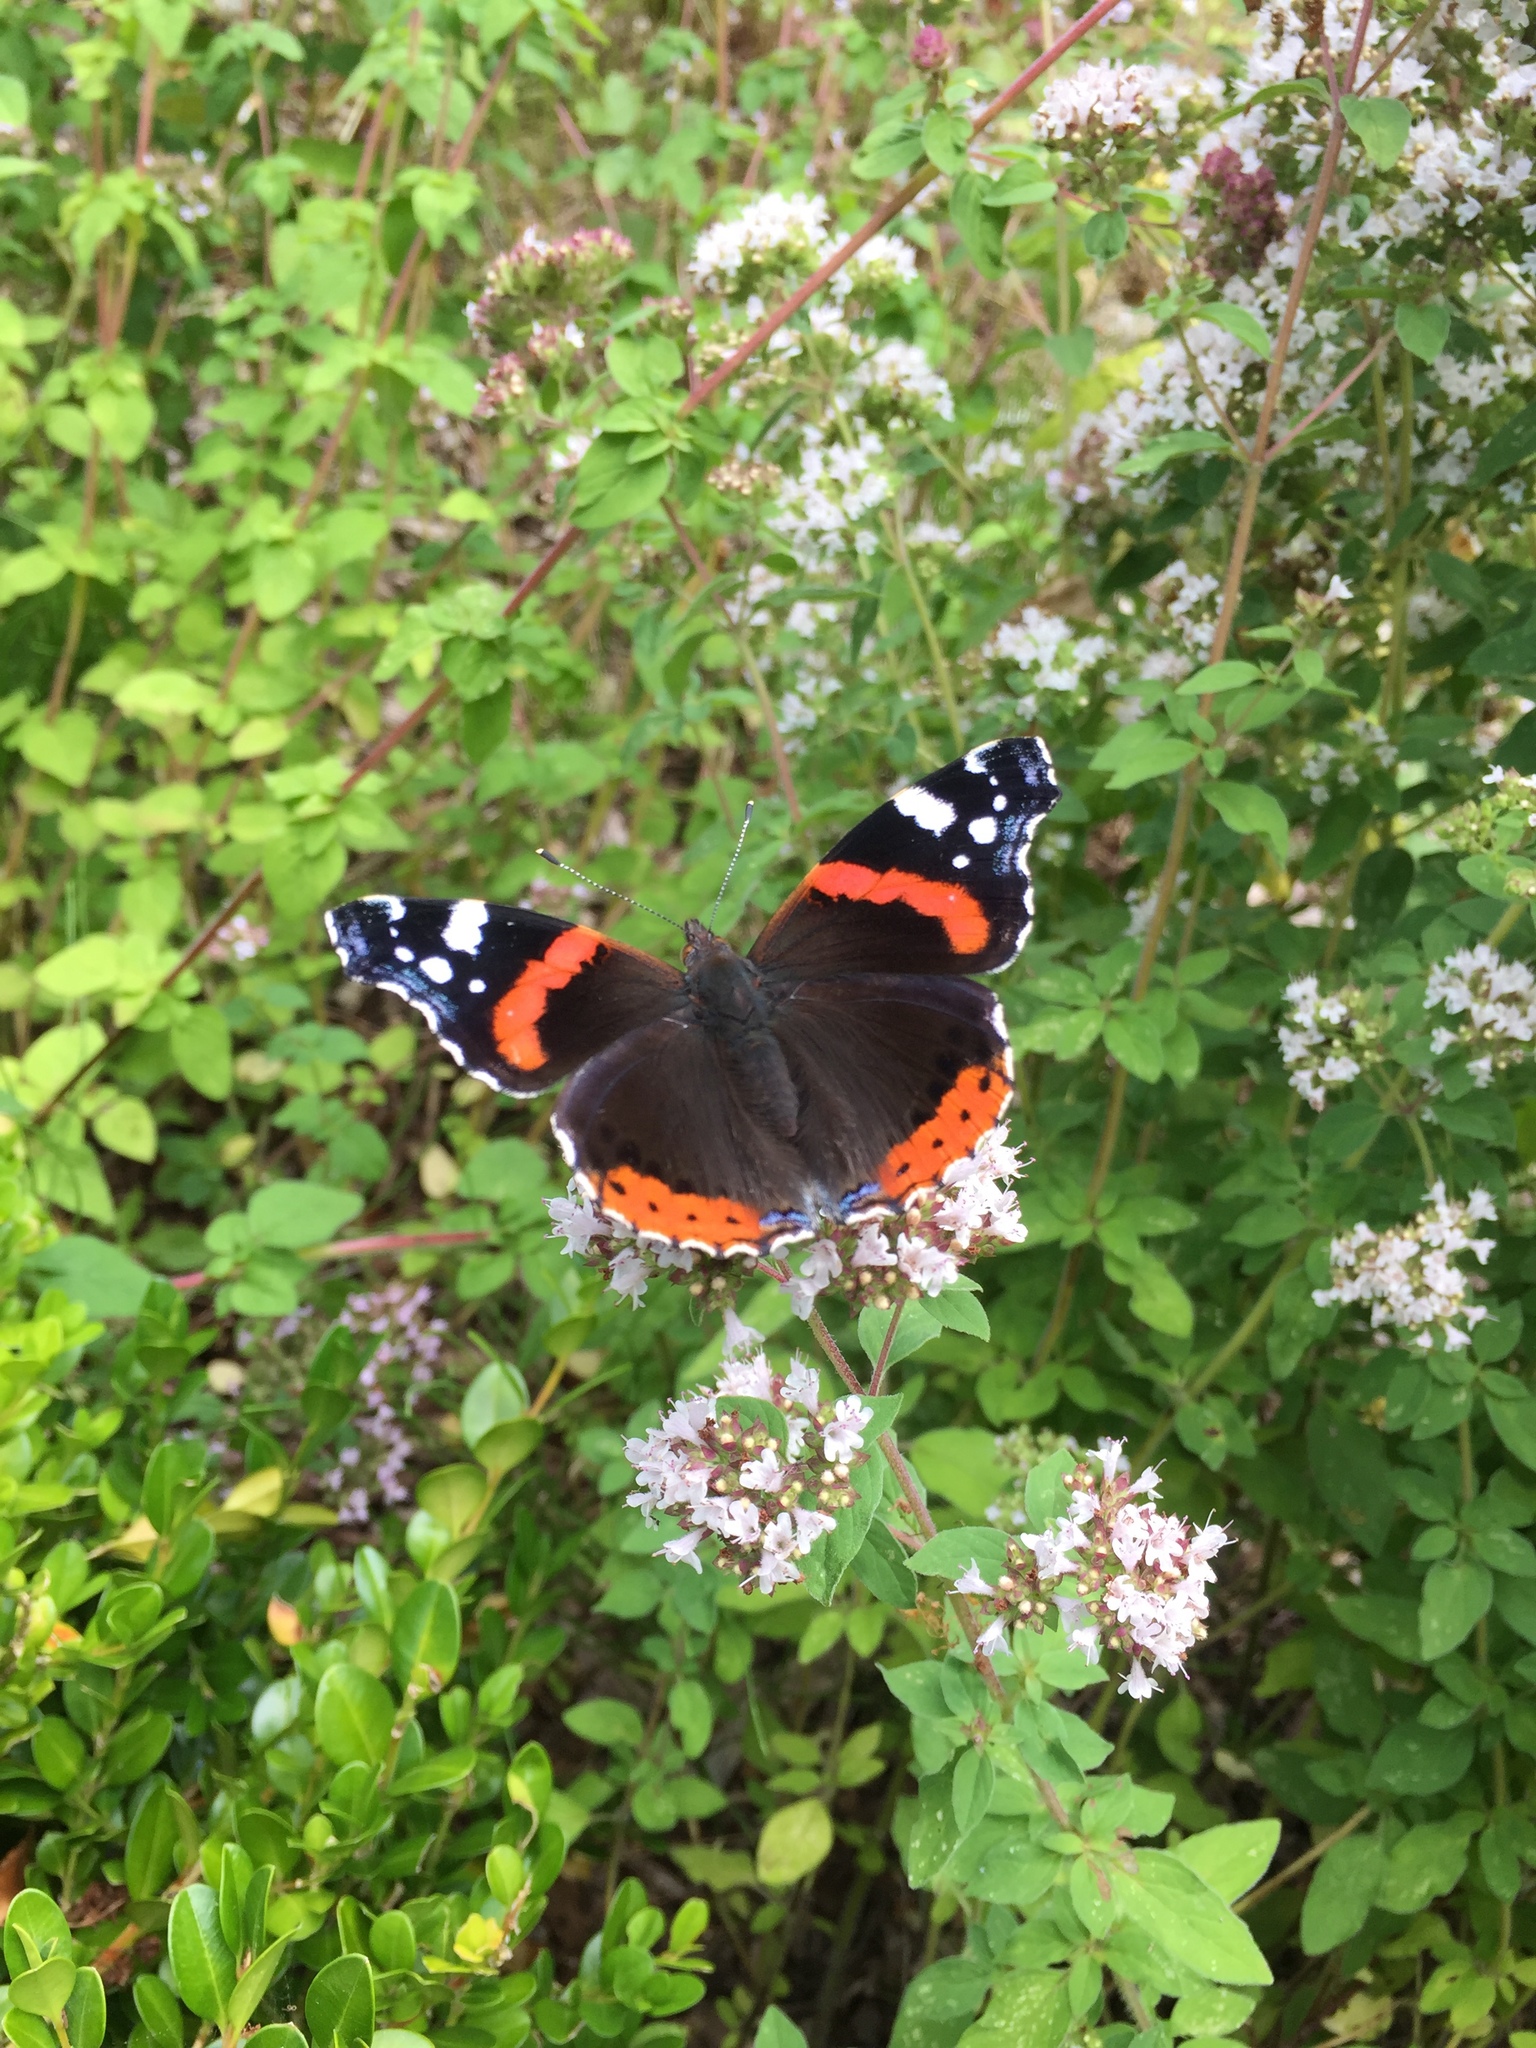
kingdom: Animalia
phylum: Arthropoda
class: Insecta
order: Lepidoptera
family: Nymphalidae
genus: Vanessa
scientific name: Vanessa atalanta
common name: Red admiral
